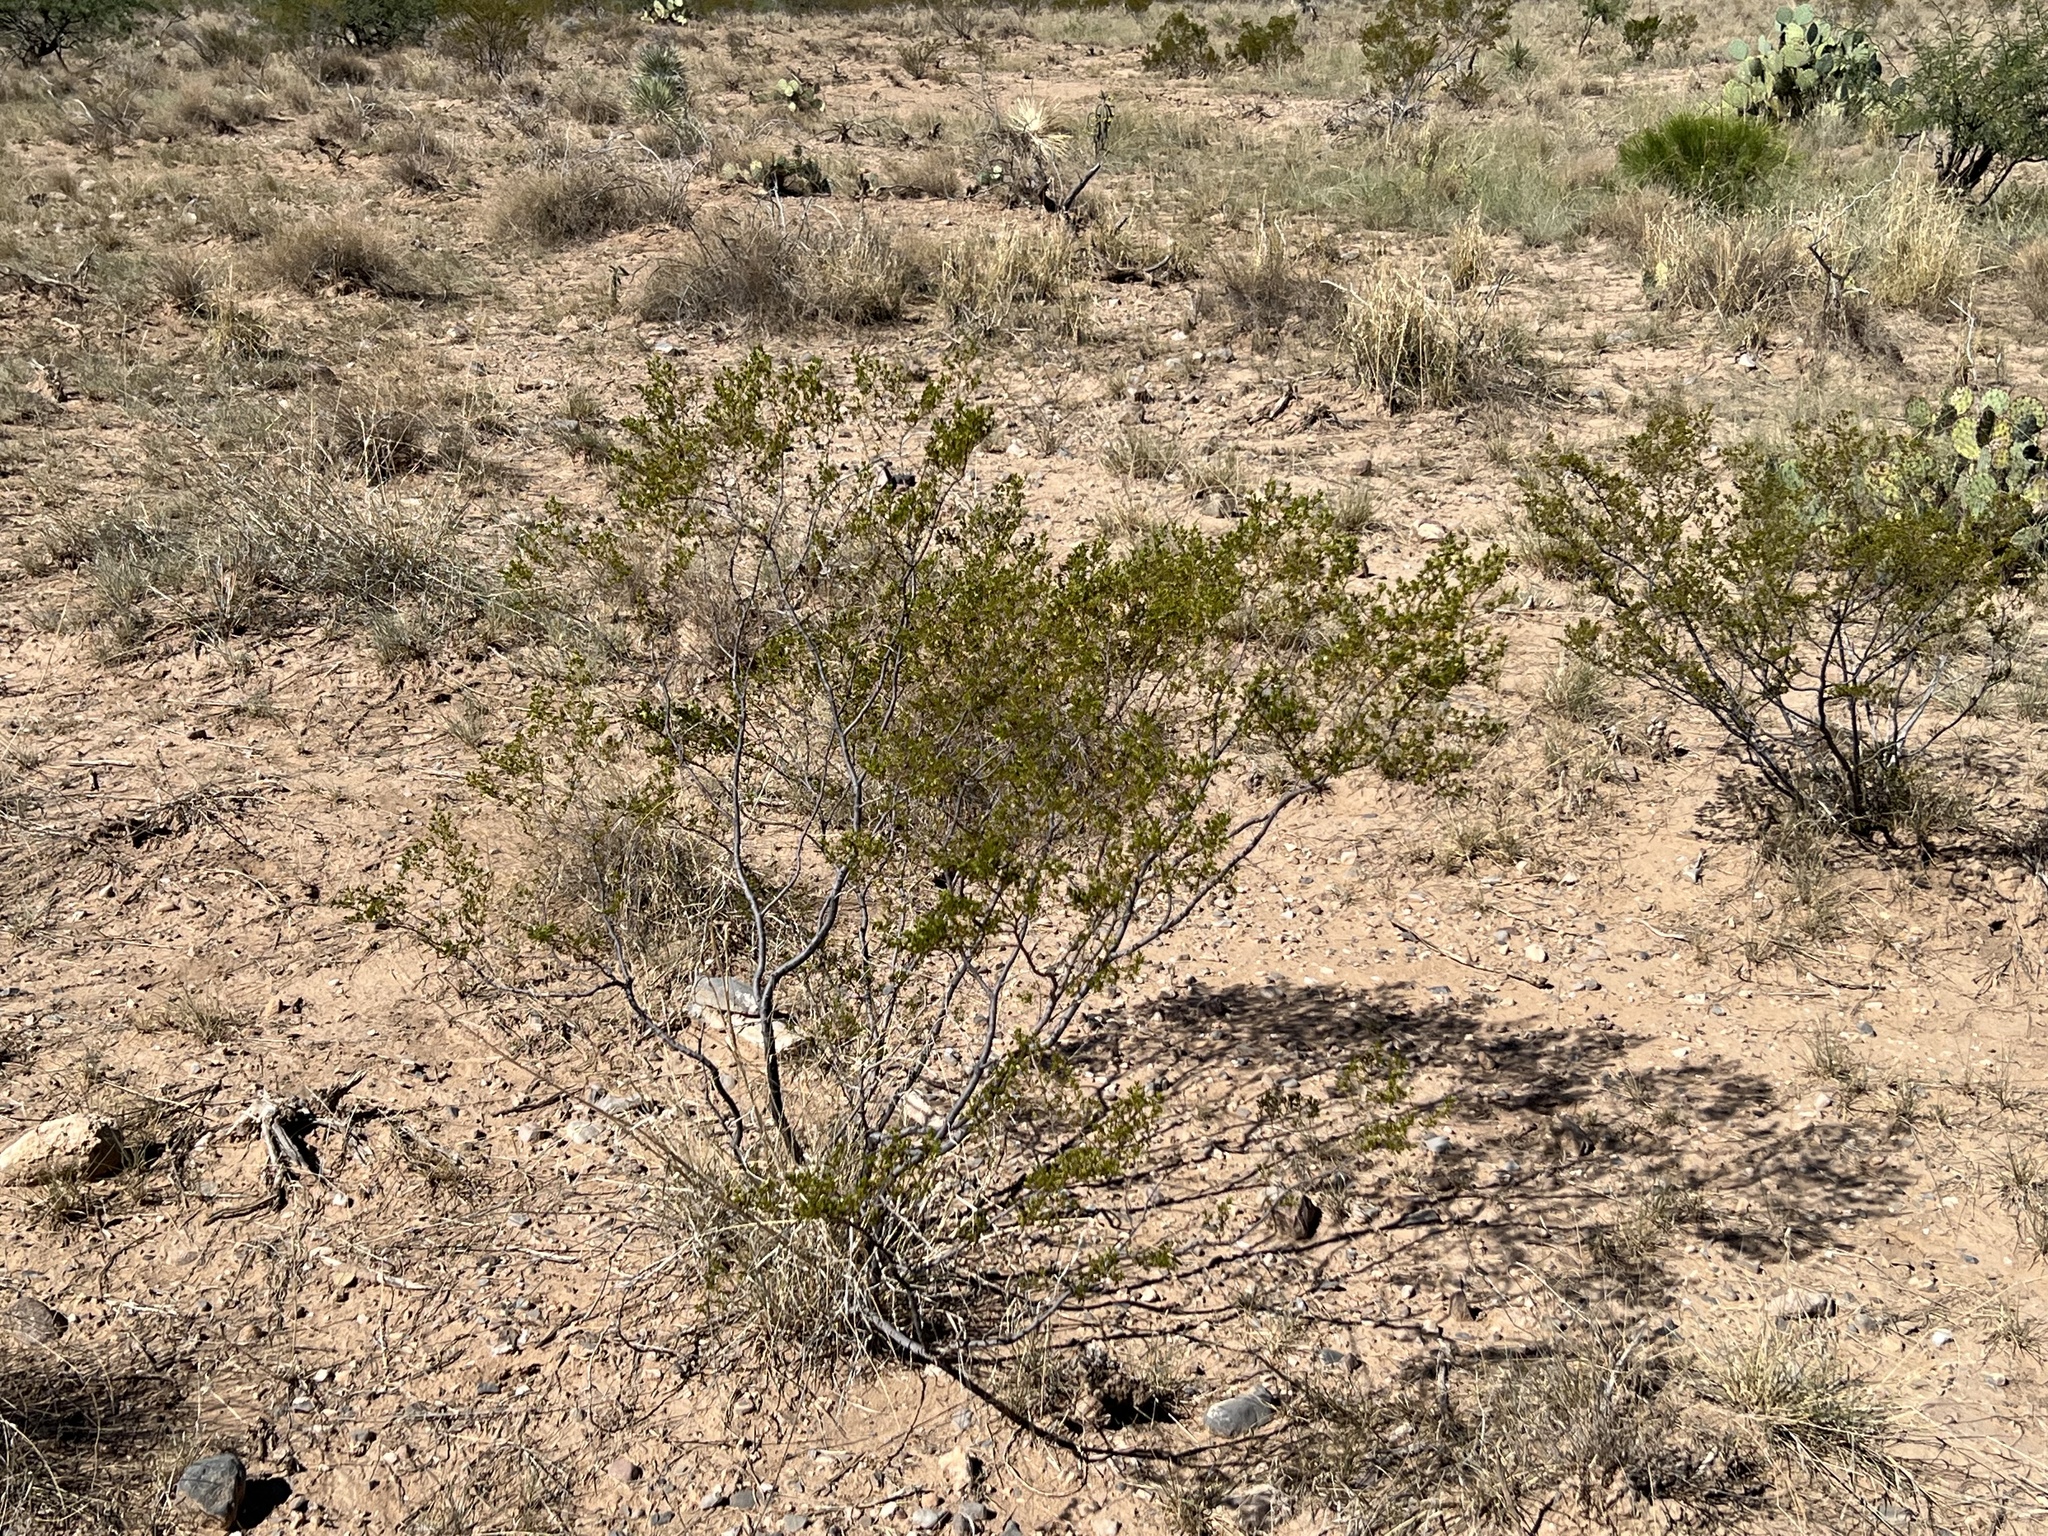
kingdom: Plantae
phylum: Tracheophyta
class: Magnoliopsida
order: Zygophyllales
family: Zygophyllaceae
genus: Larrea
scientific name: Larrea tridentata
